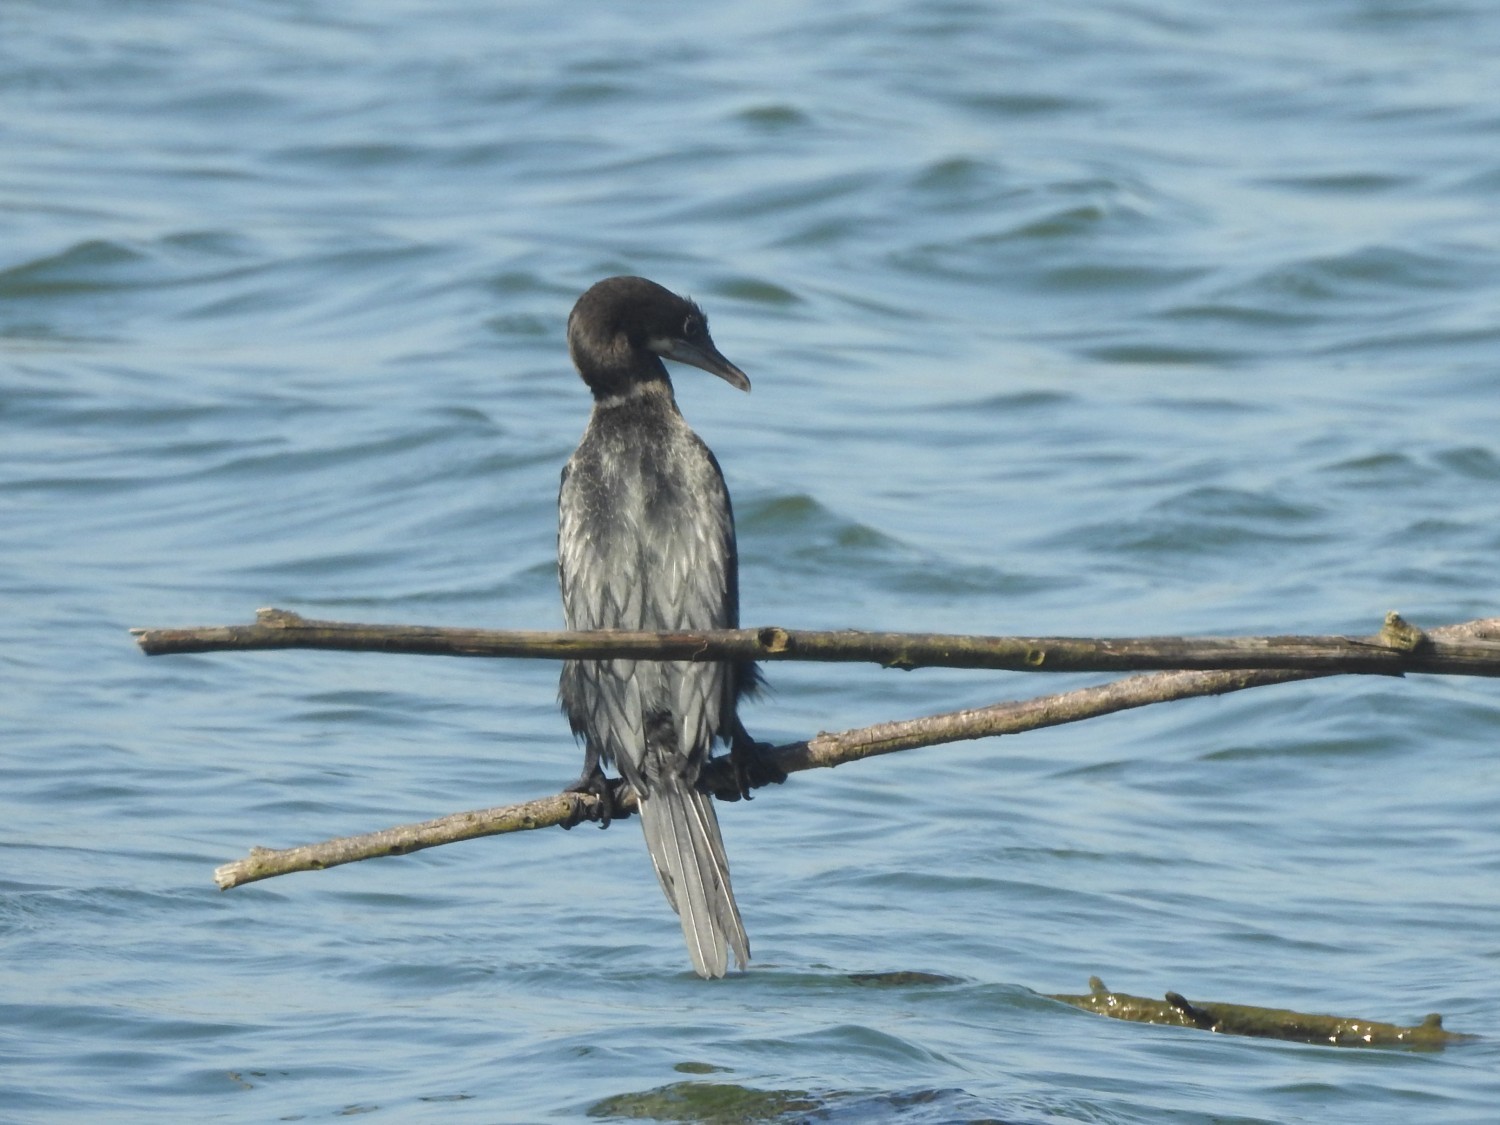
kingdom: Animalia
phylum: Chordata
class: Aves
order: Suliformes
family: Phalacrocoracidae
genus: Microcarbo
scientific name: Microcarbo niger
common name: Little cormorant
